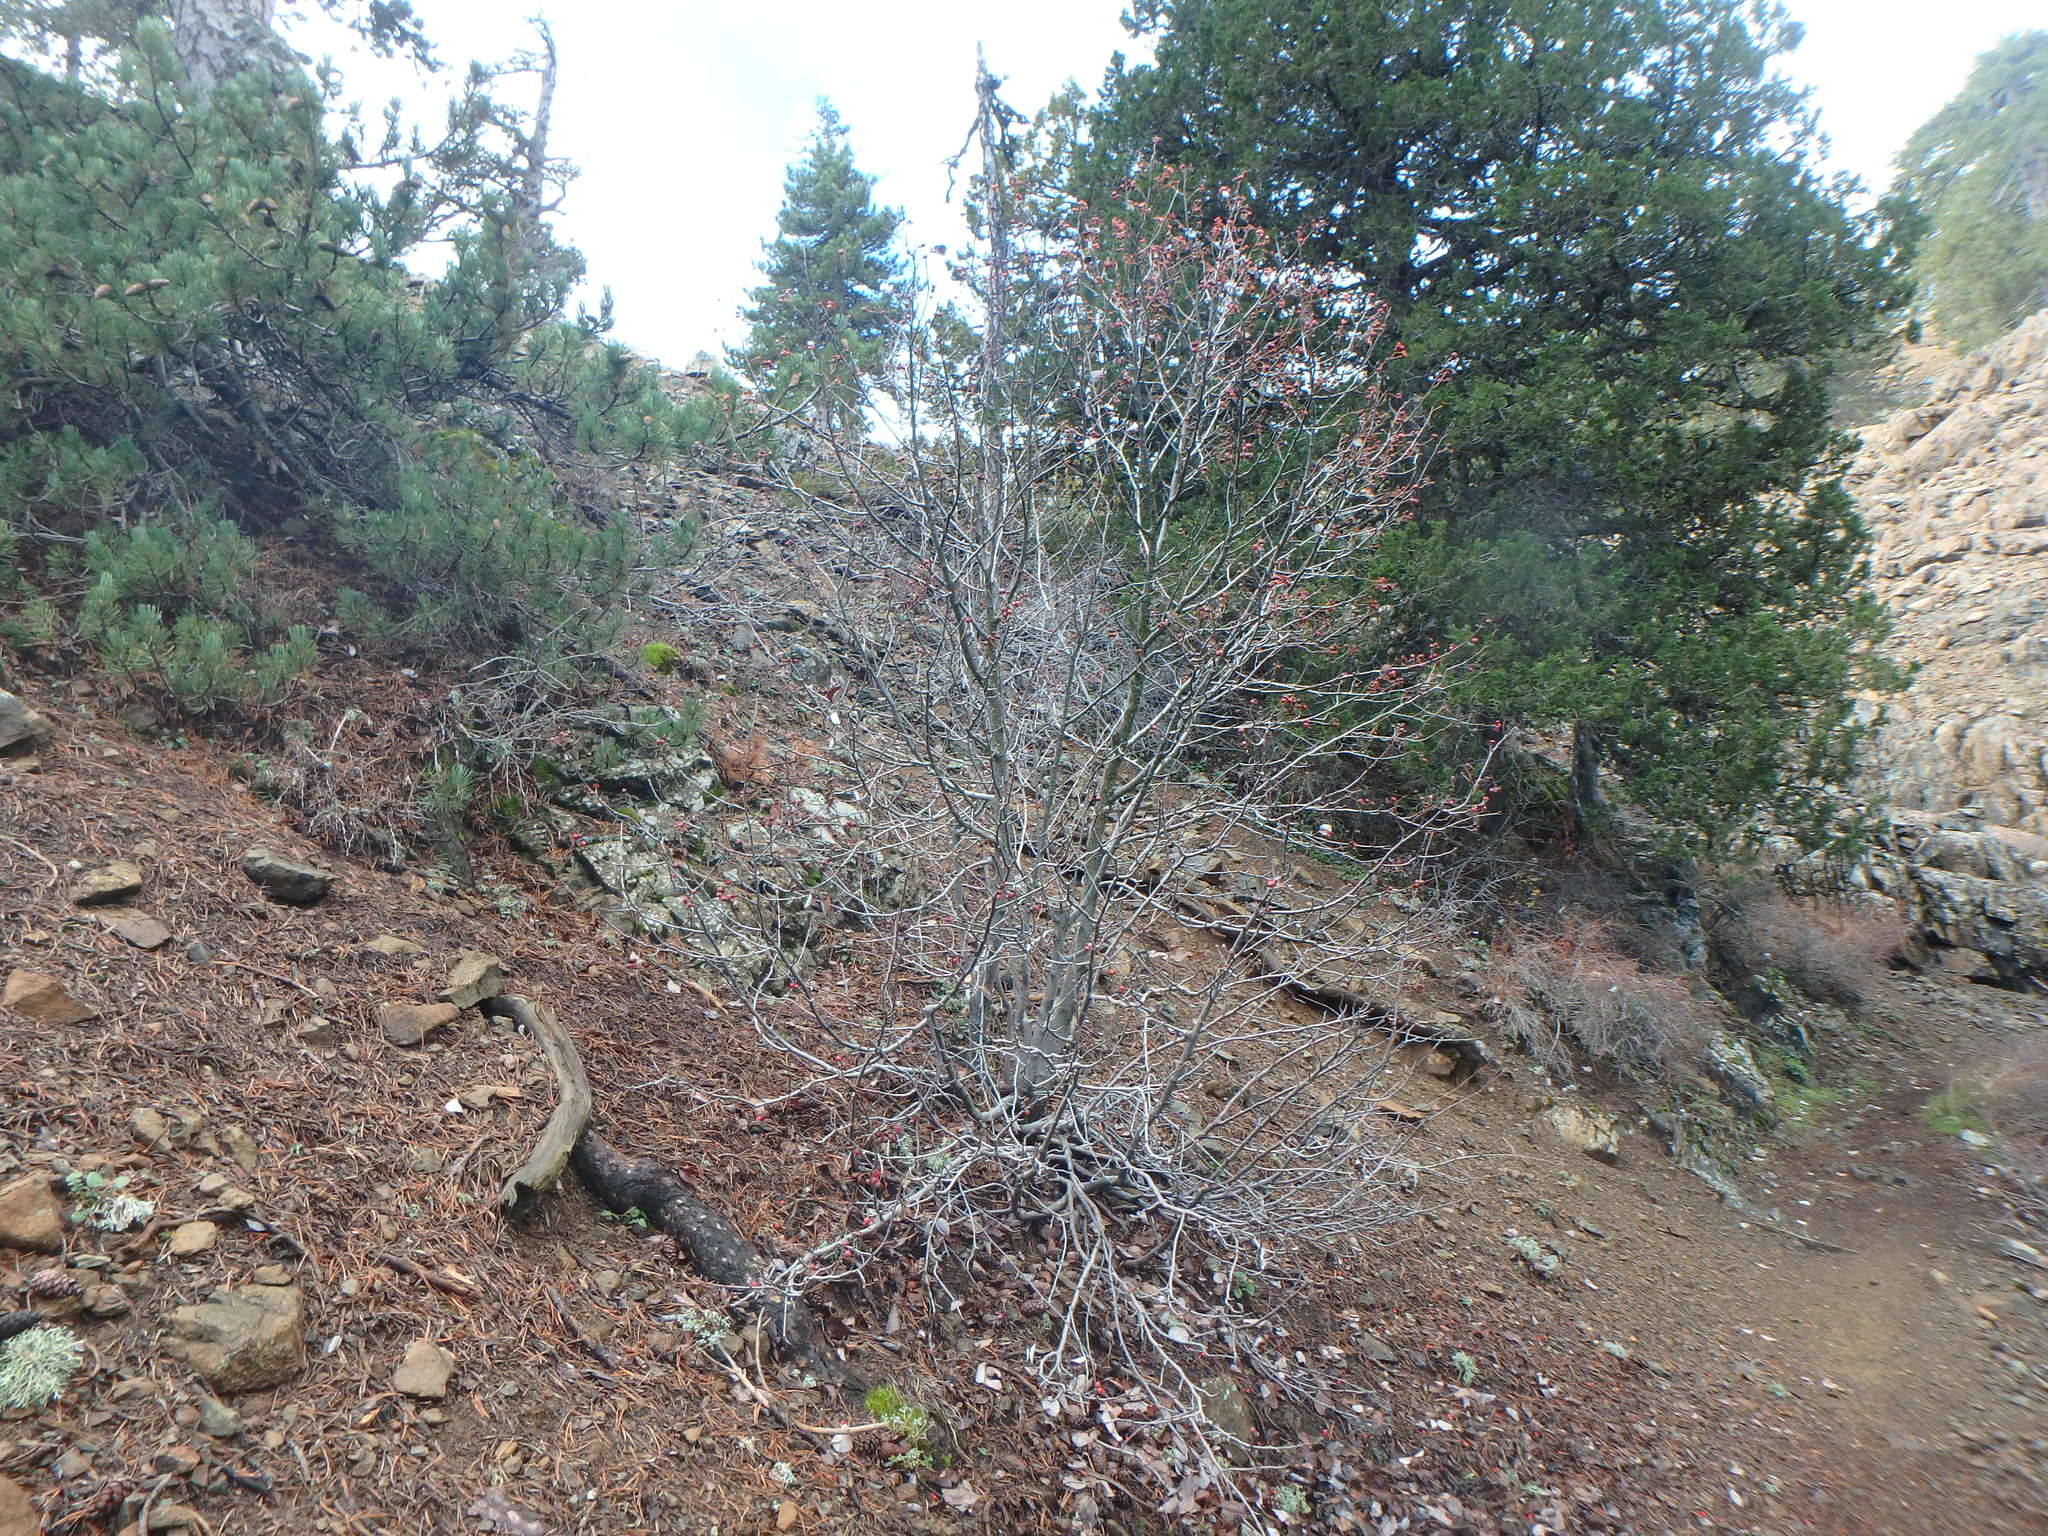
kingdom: Plantae
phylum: Tracheophyta
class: Magnoliopsida
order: Rosales
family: Rosaceae
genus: Aria
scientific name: Aria graeca
